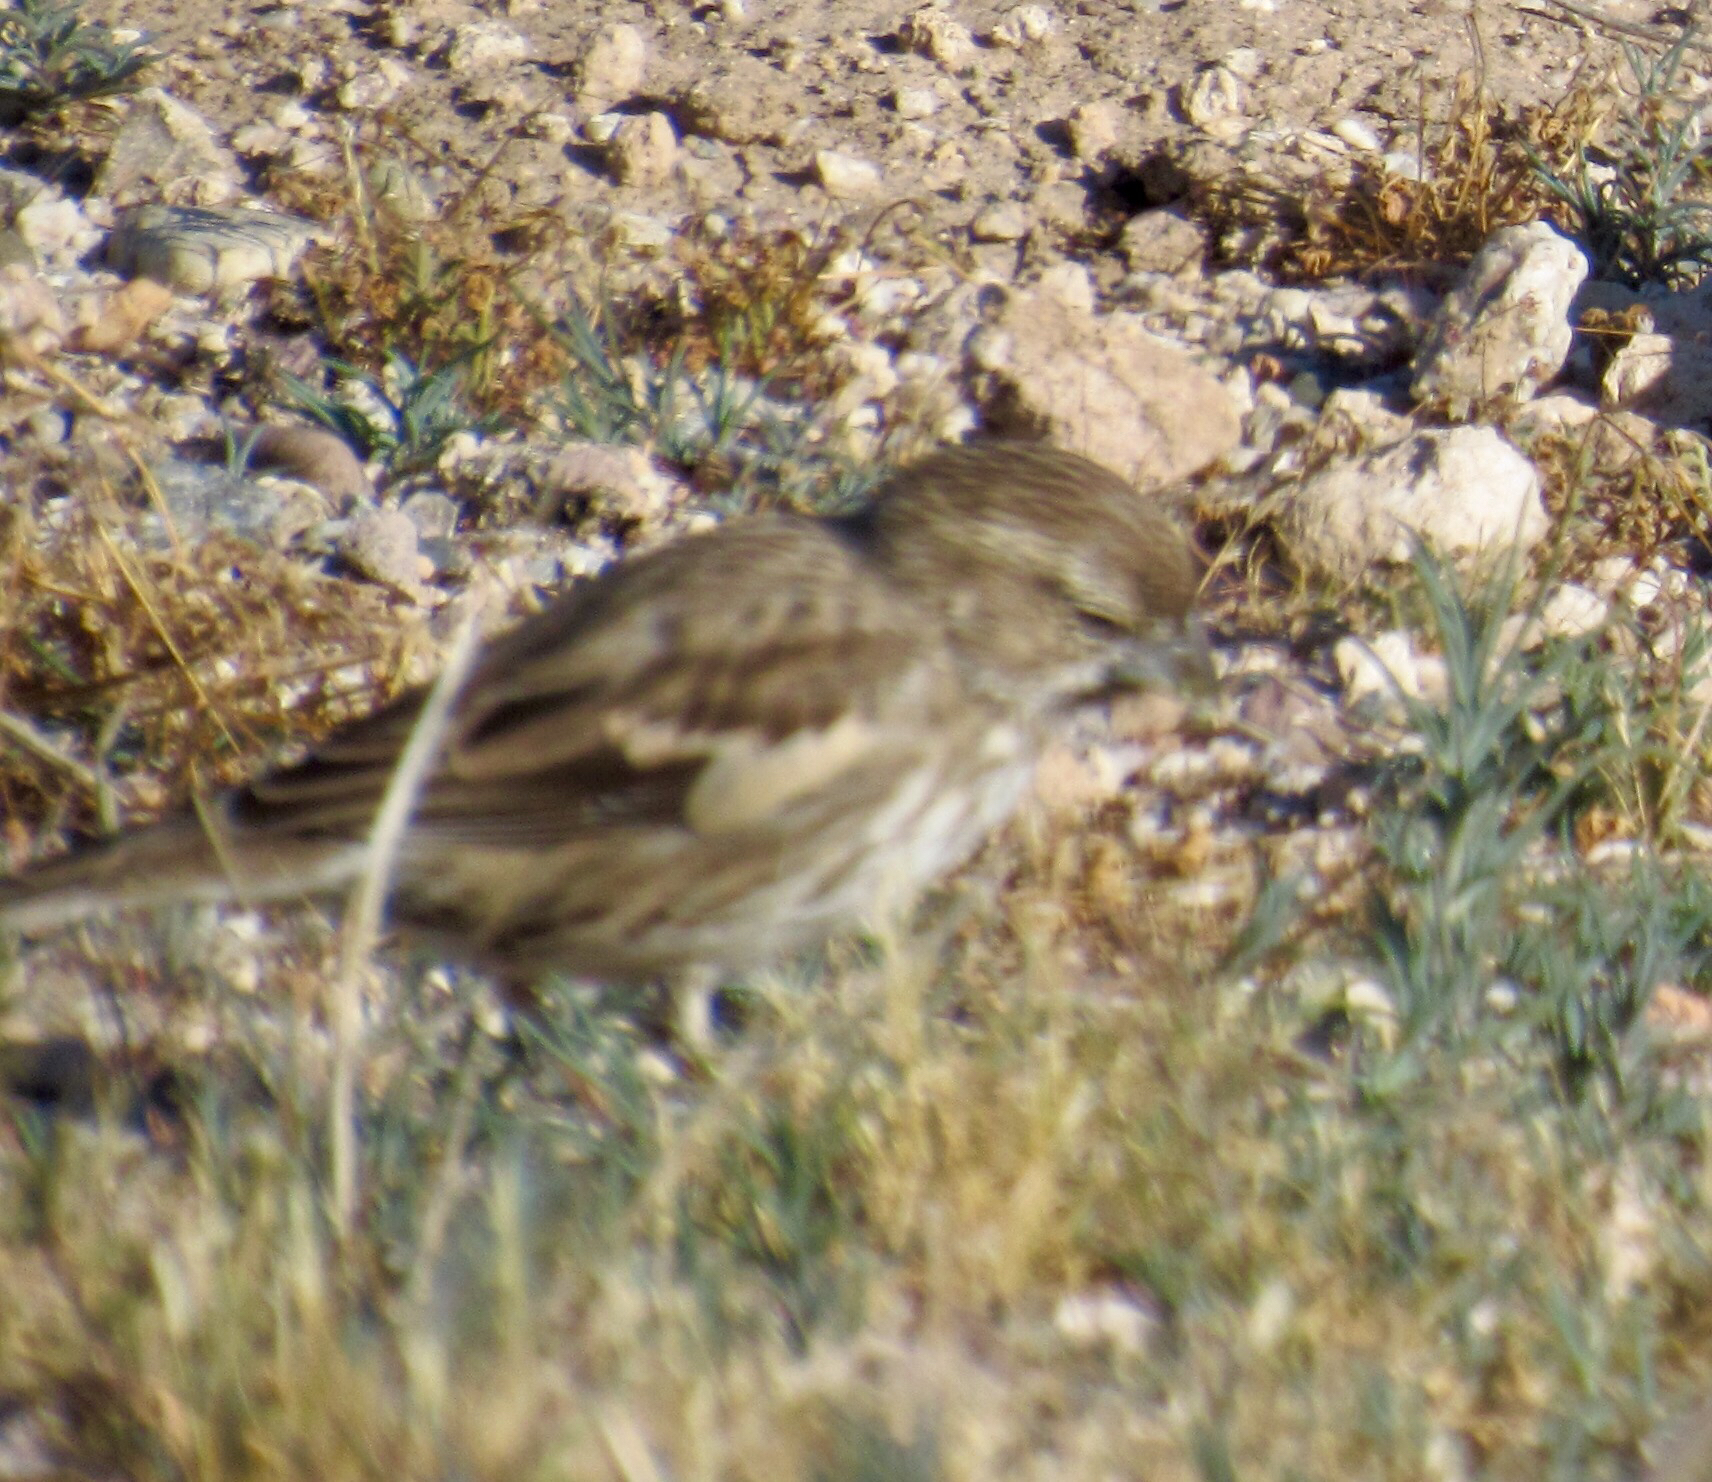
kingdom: Animalia
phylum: Chordata
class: Aves
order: Passeriformes
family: Passerellidae
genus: Calamospiza
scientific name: Calamospiza melanocorys
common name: Lark bunting
